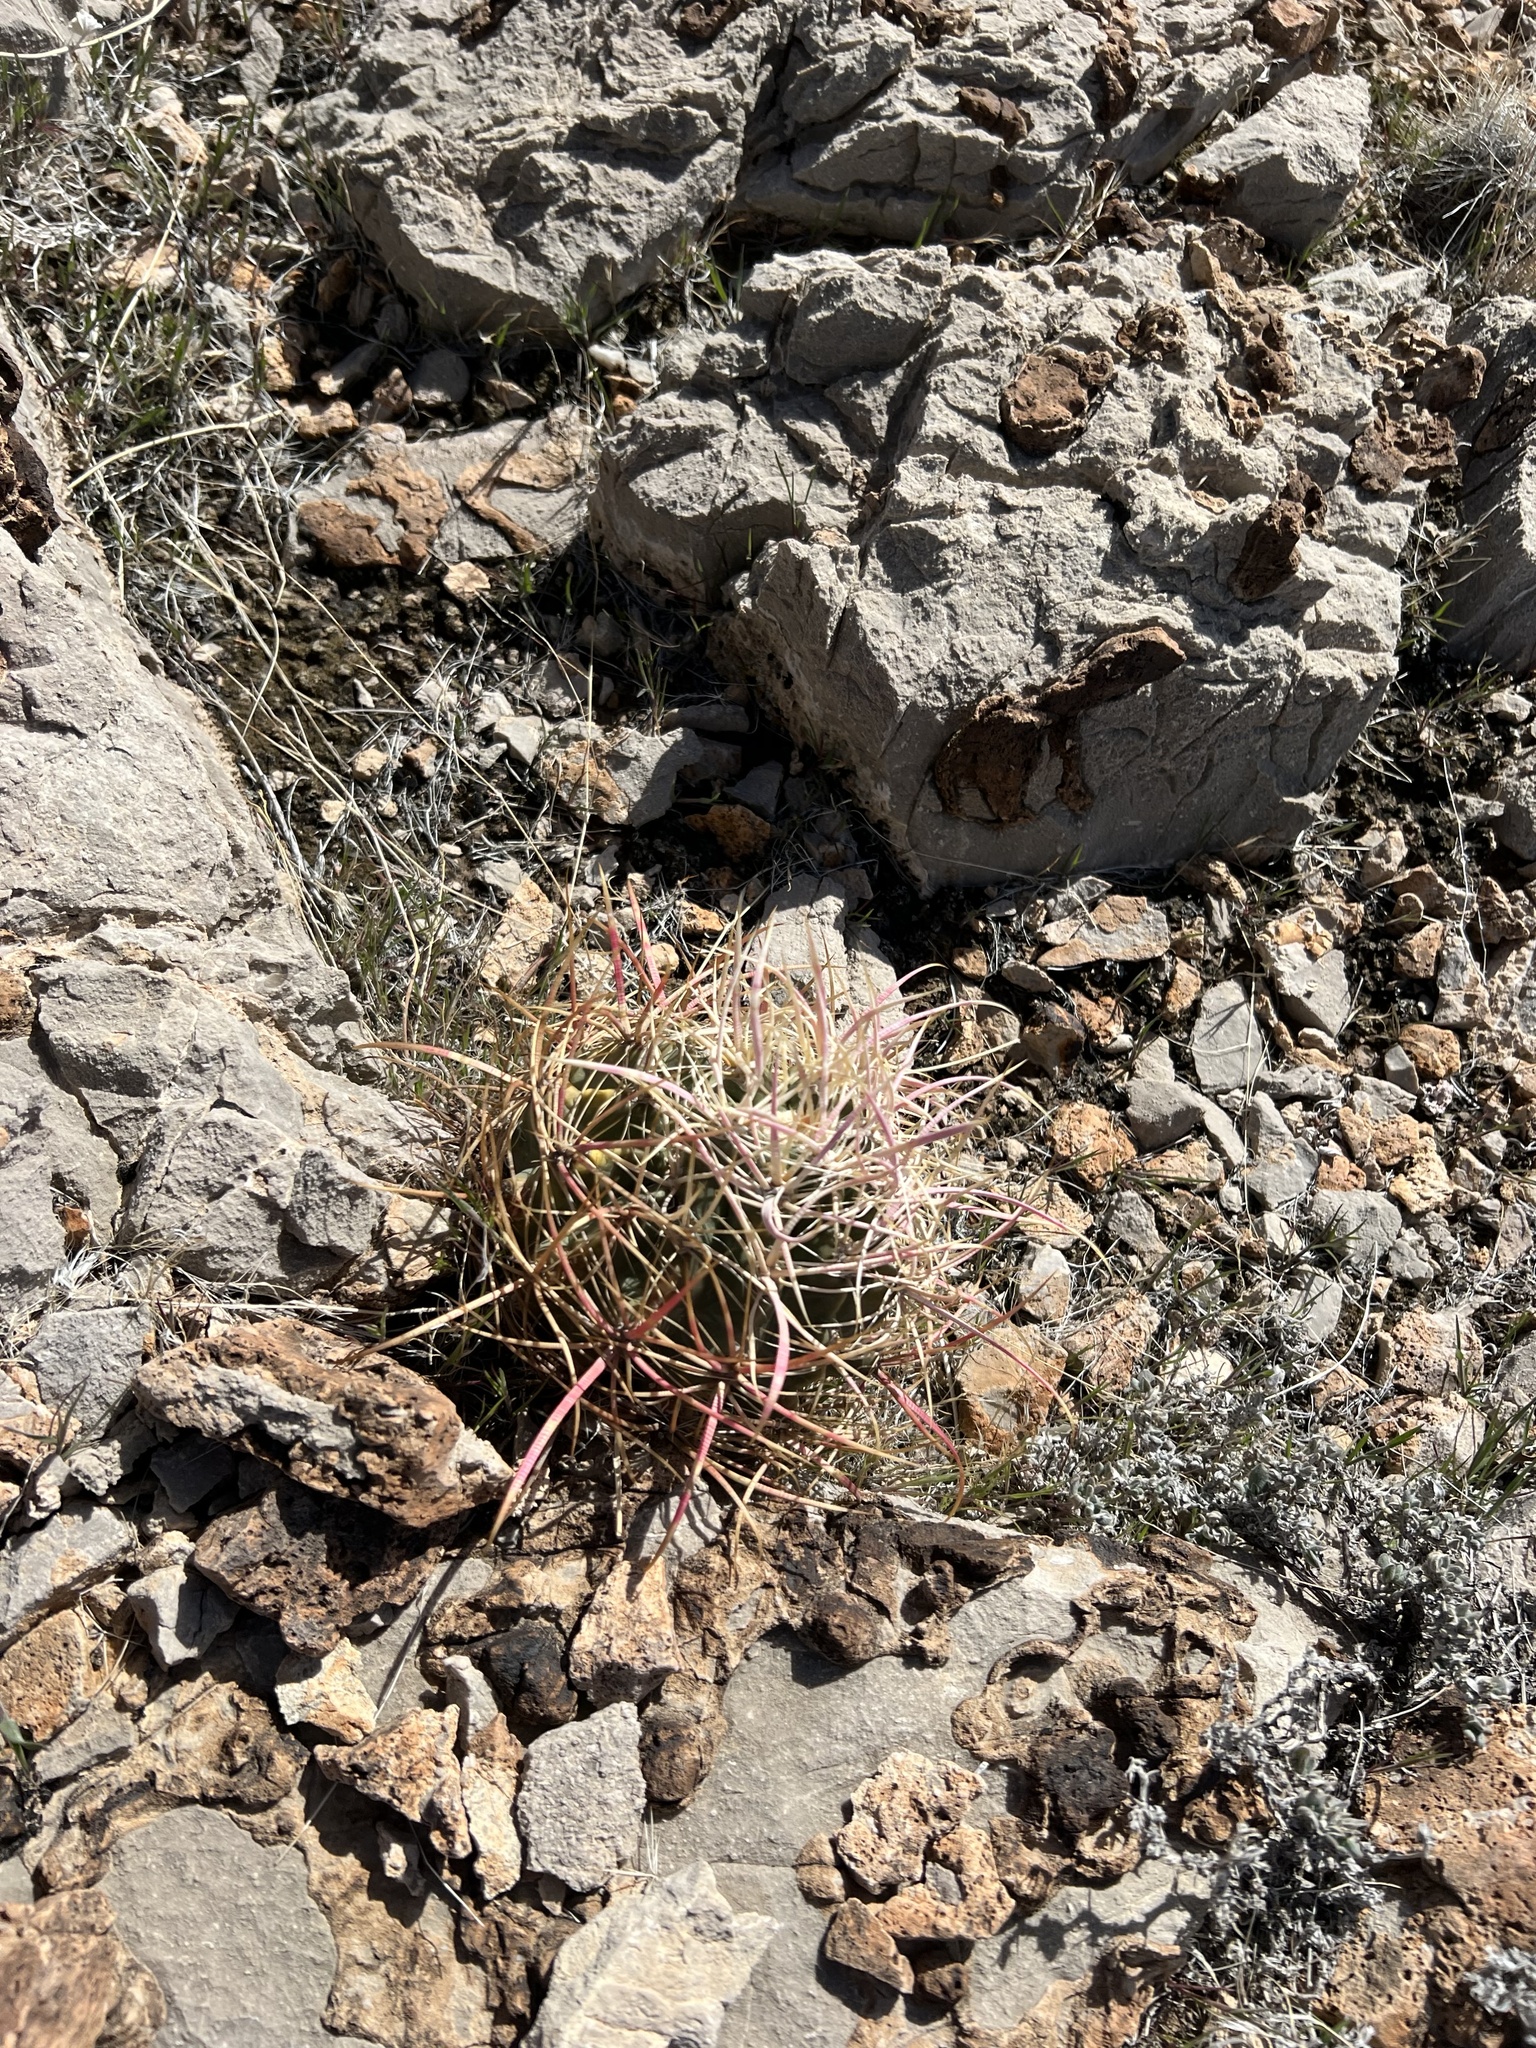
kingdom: Plantae
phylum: Tracheophyta
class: Magnoliopsida
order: Caryophyllales
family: Cactaceae
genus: Ferocactus
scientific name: Ferocactus cylindraceus
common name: California barrel cactus
